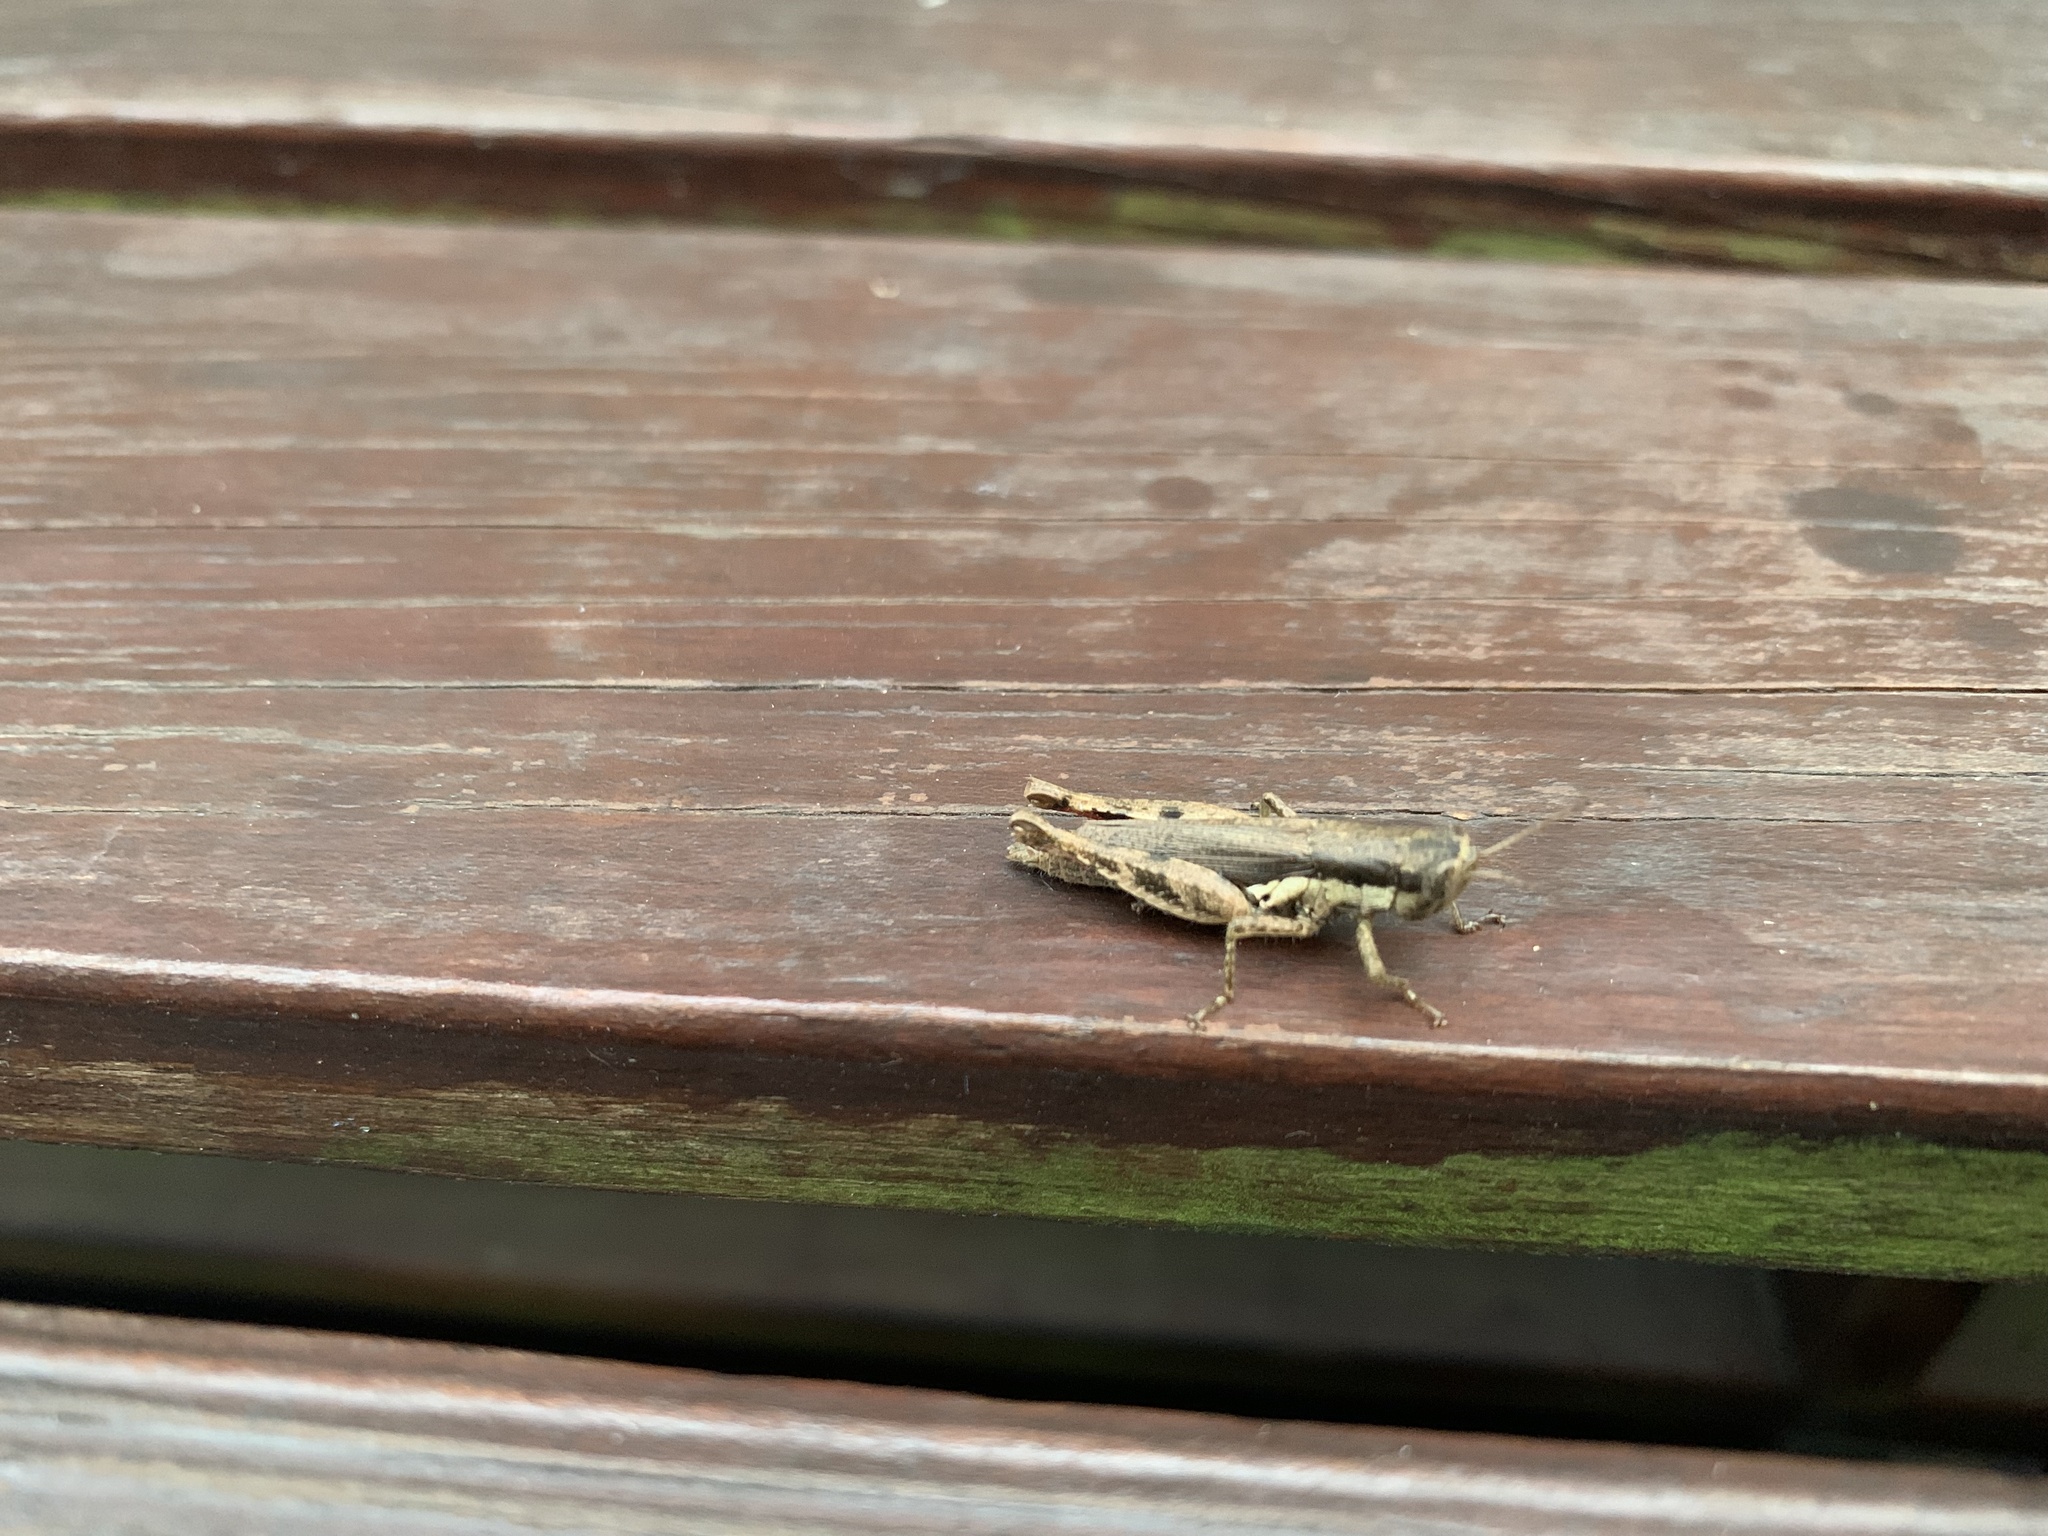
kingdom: Animalia
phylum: Arthropoda
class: Insecta
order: Orthoptera
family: Acrididae
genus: Pseudoxya
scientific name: Pseudoxya diminuta
